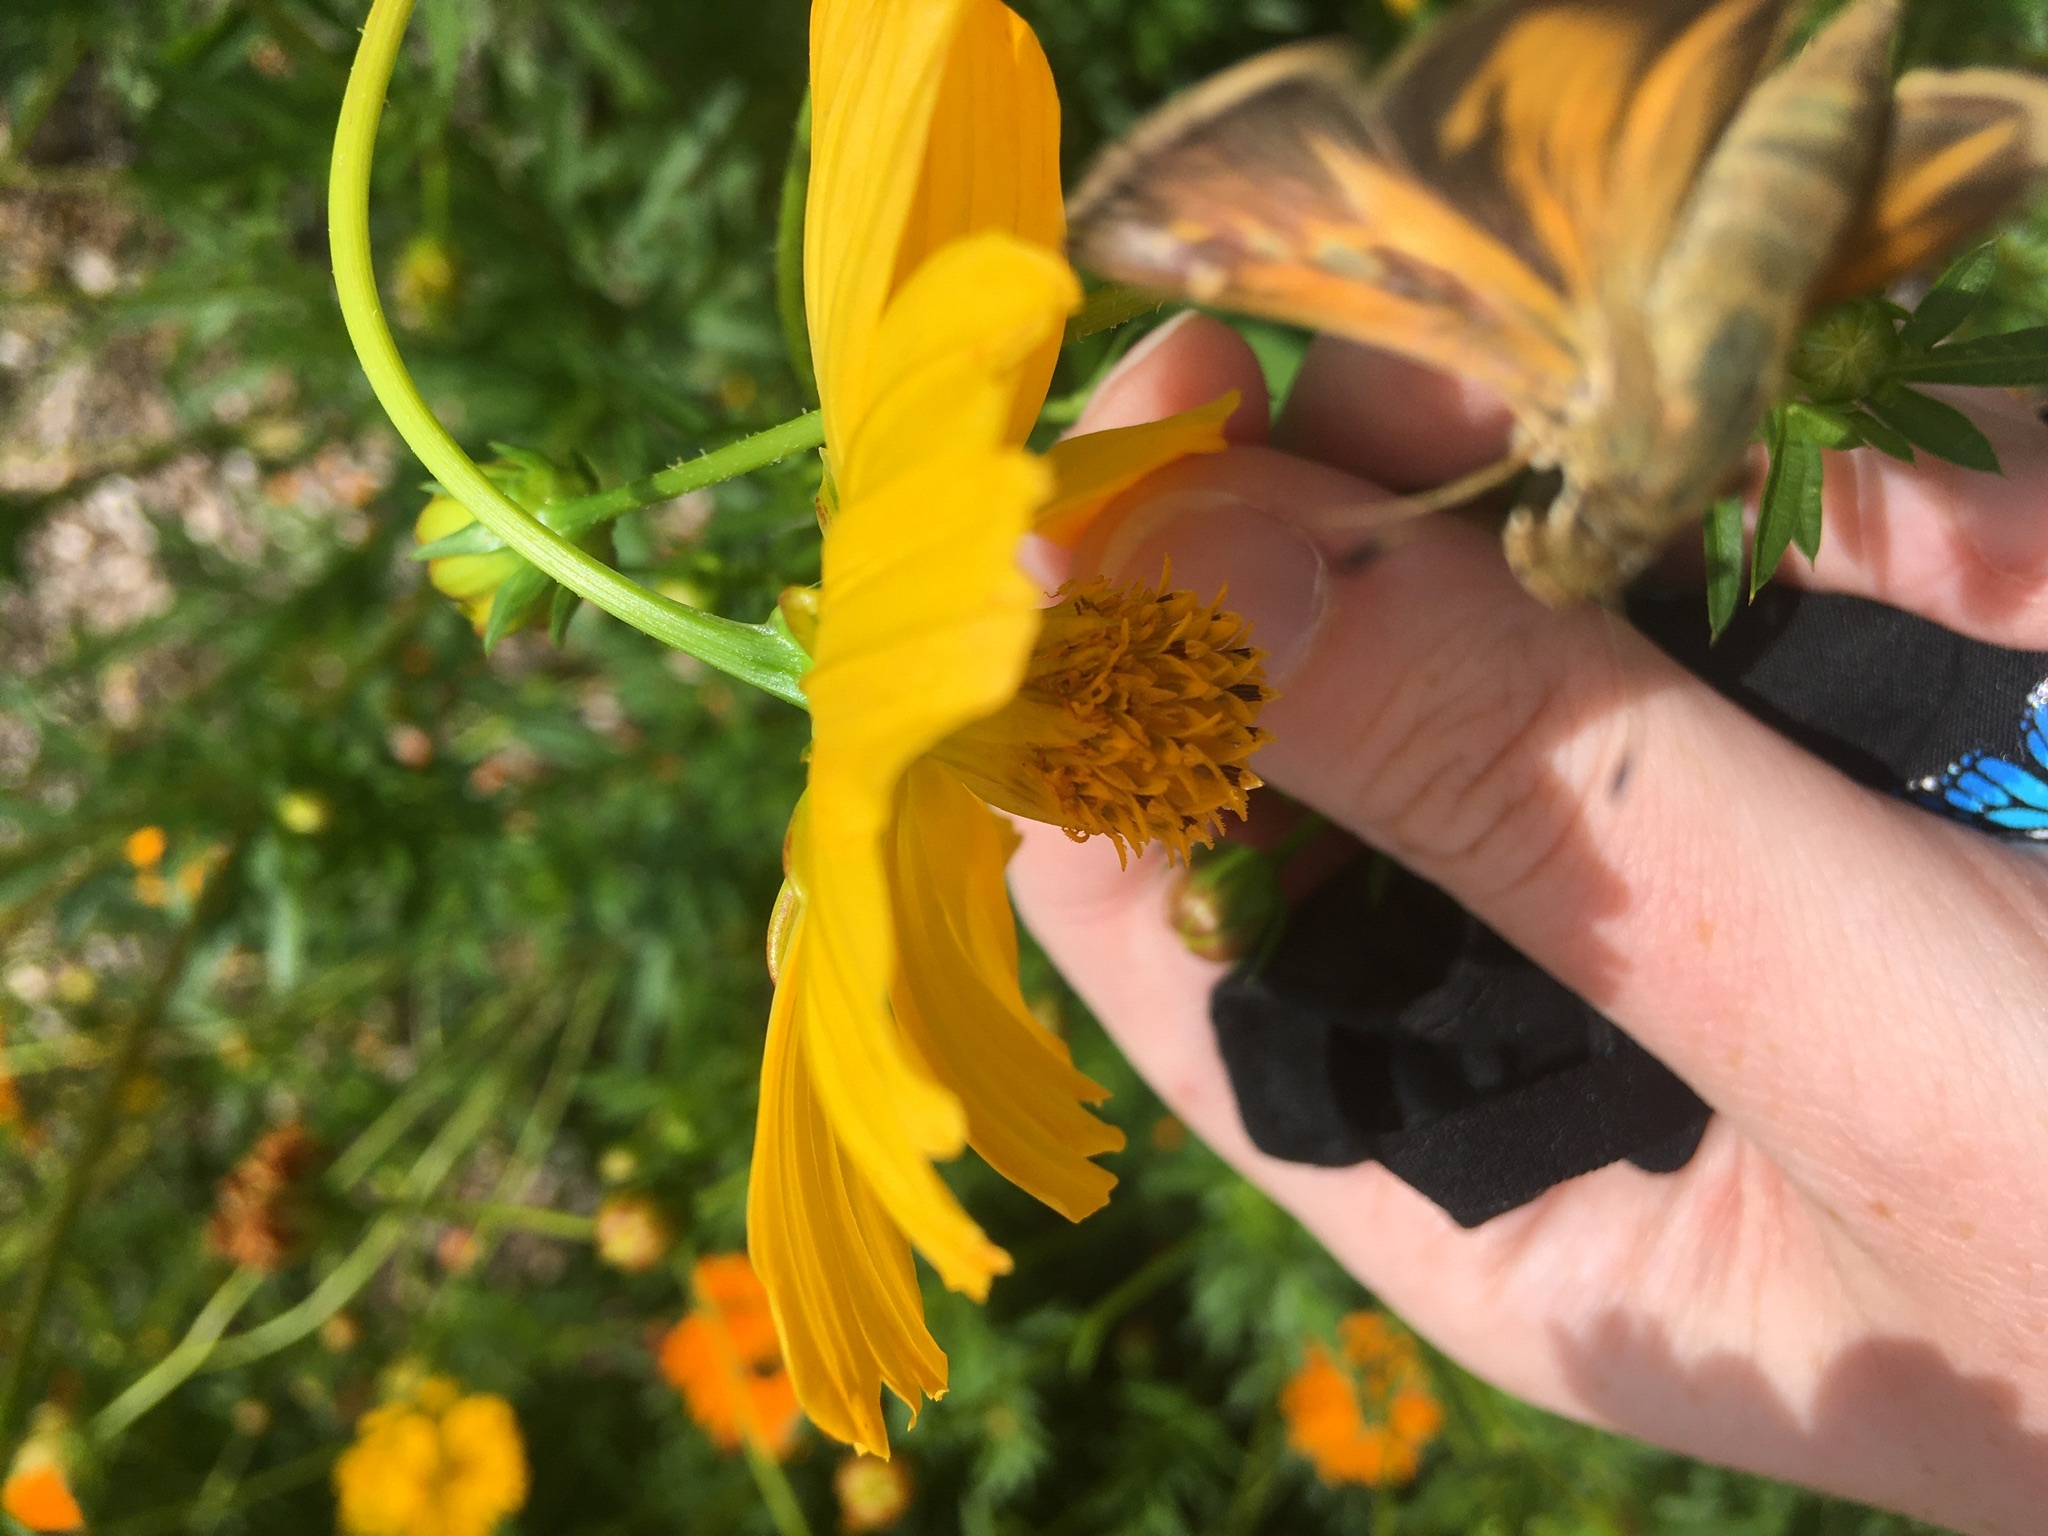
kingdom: Animalia
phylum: Arthropoda
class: Insecta
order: Lepidoptera
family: Hesperiidae
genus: Atalopedes
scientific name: Atalopedes
